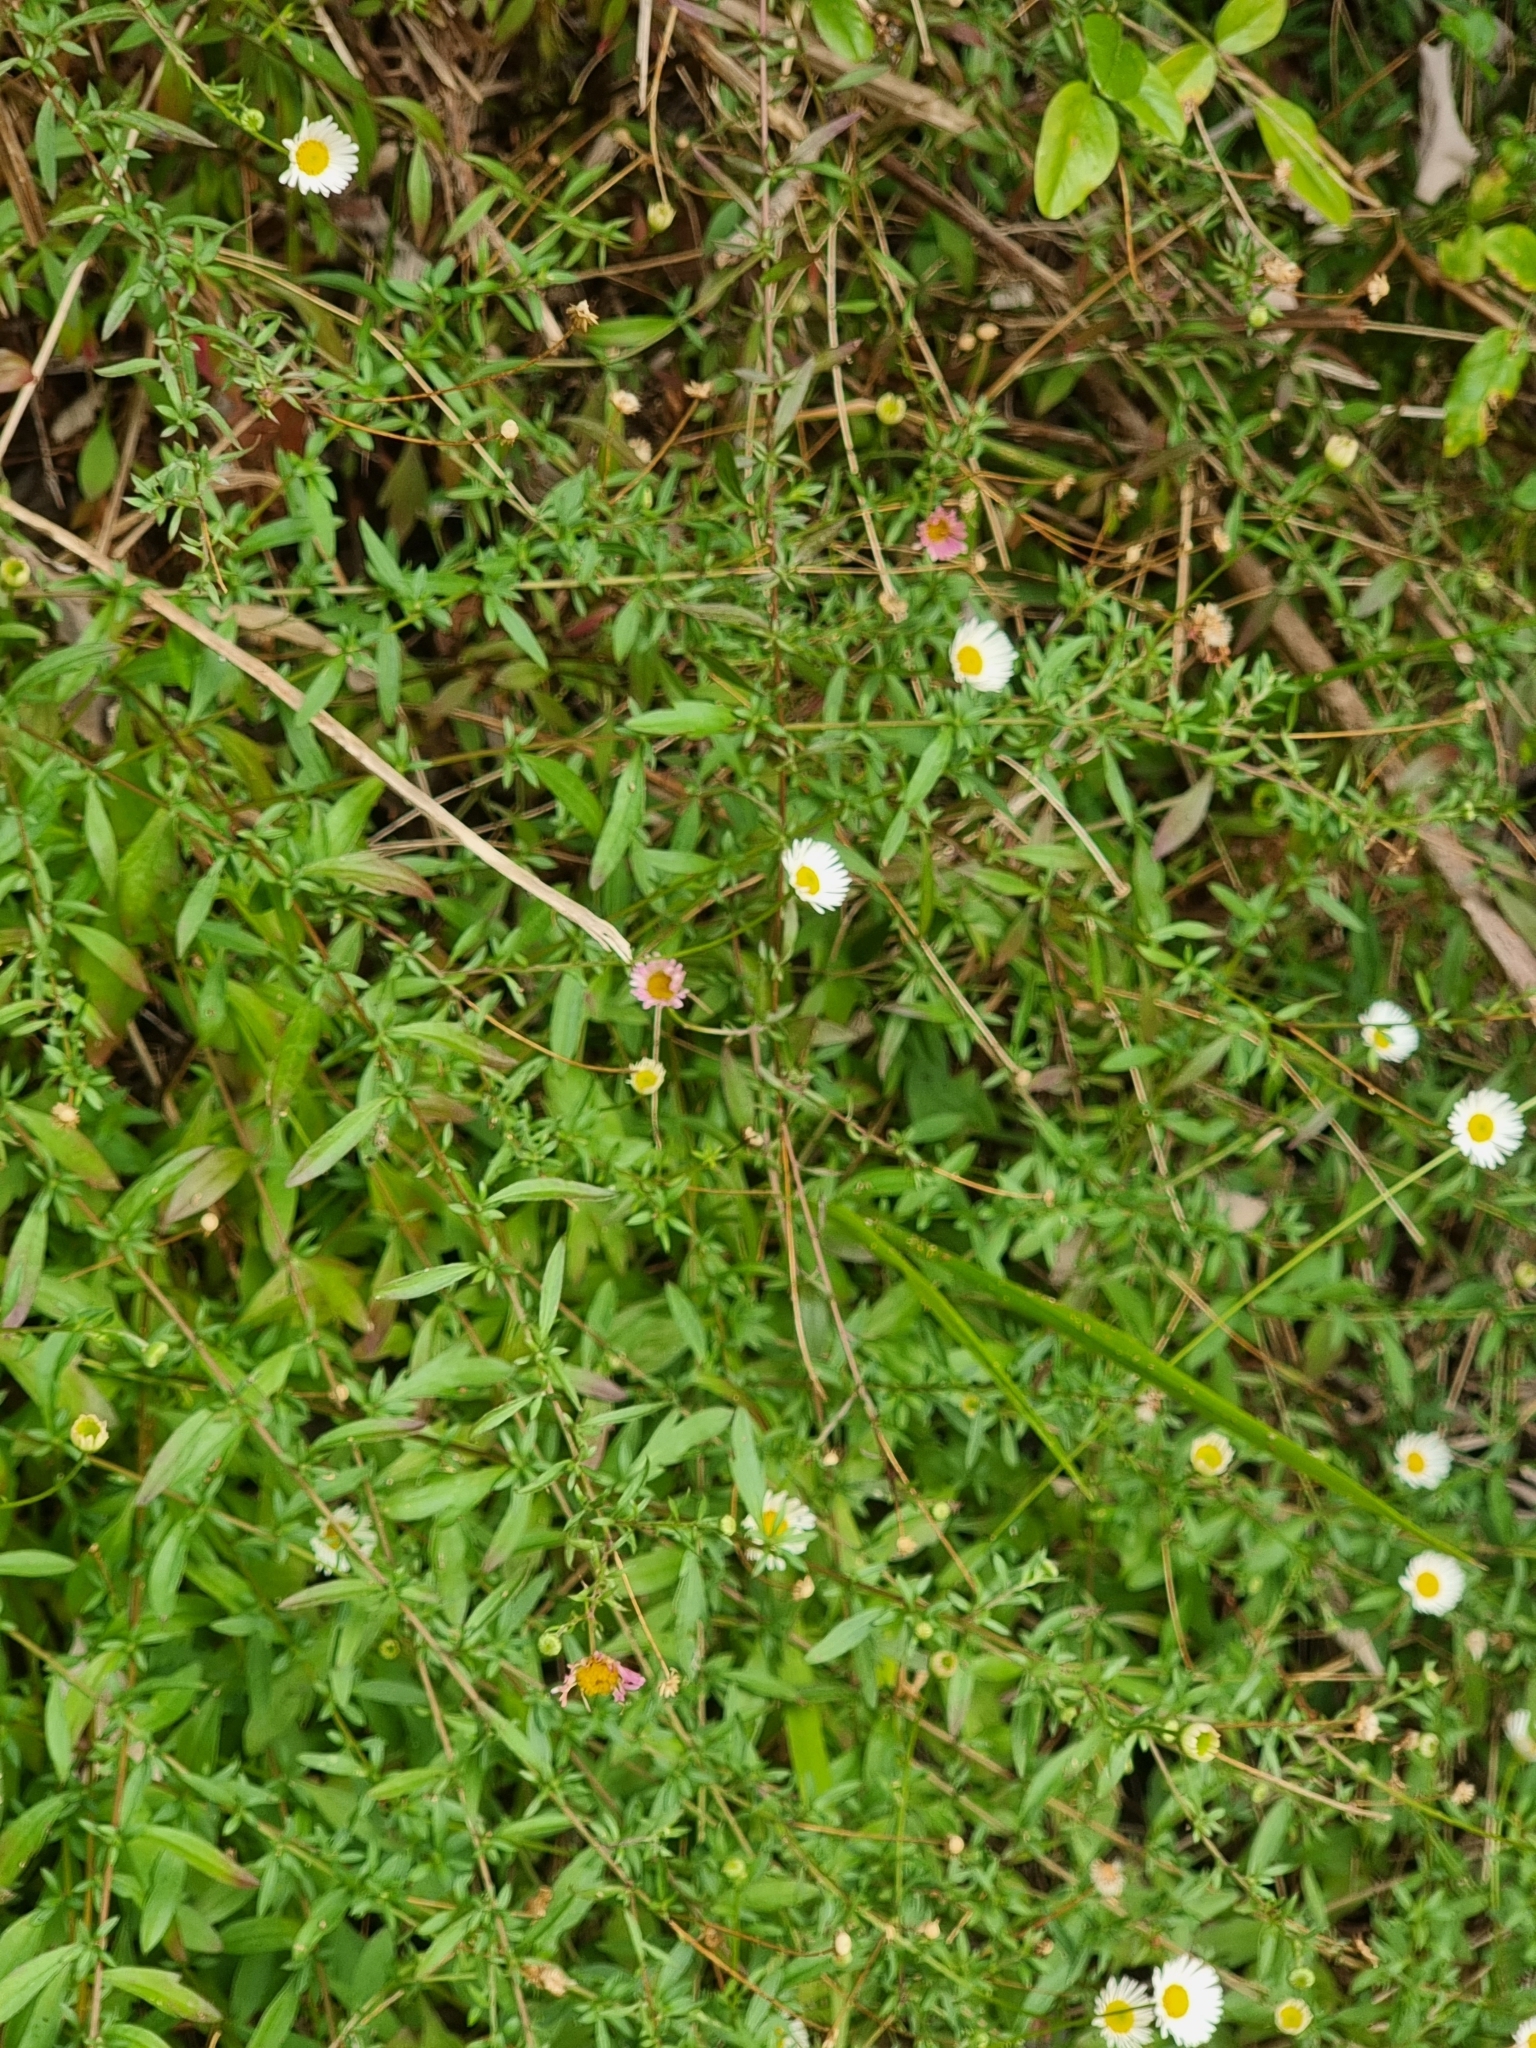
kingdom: Plantae
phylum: Tracheophyta
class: Magnoliopsida
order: Asterales
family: Asteraceae
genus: Erigeron
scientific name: Erigeron karvinskianus
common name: Mexican fleabane
